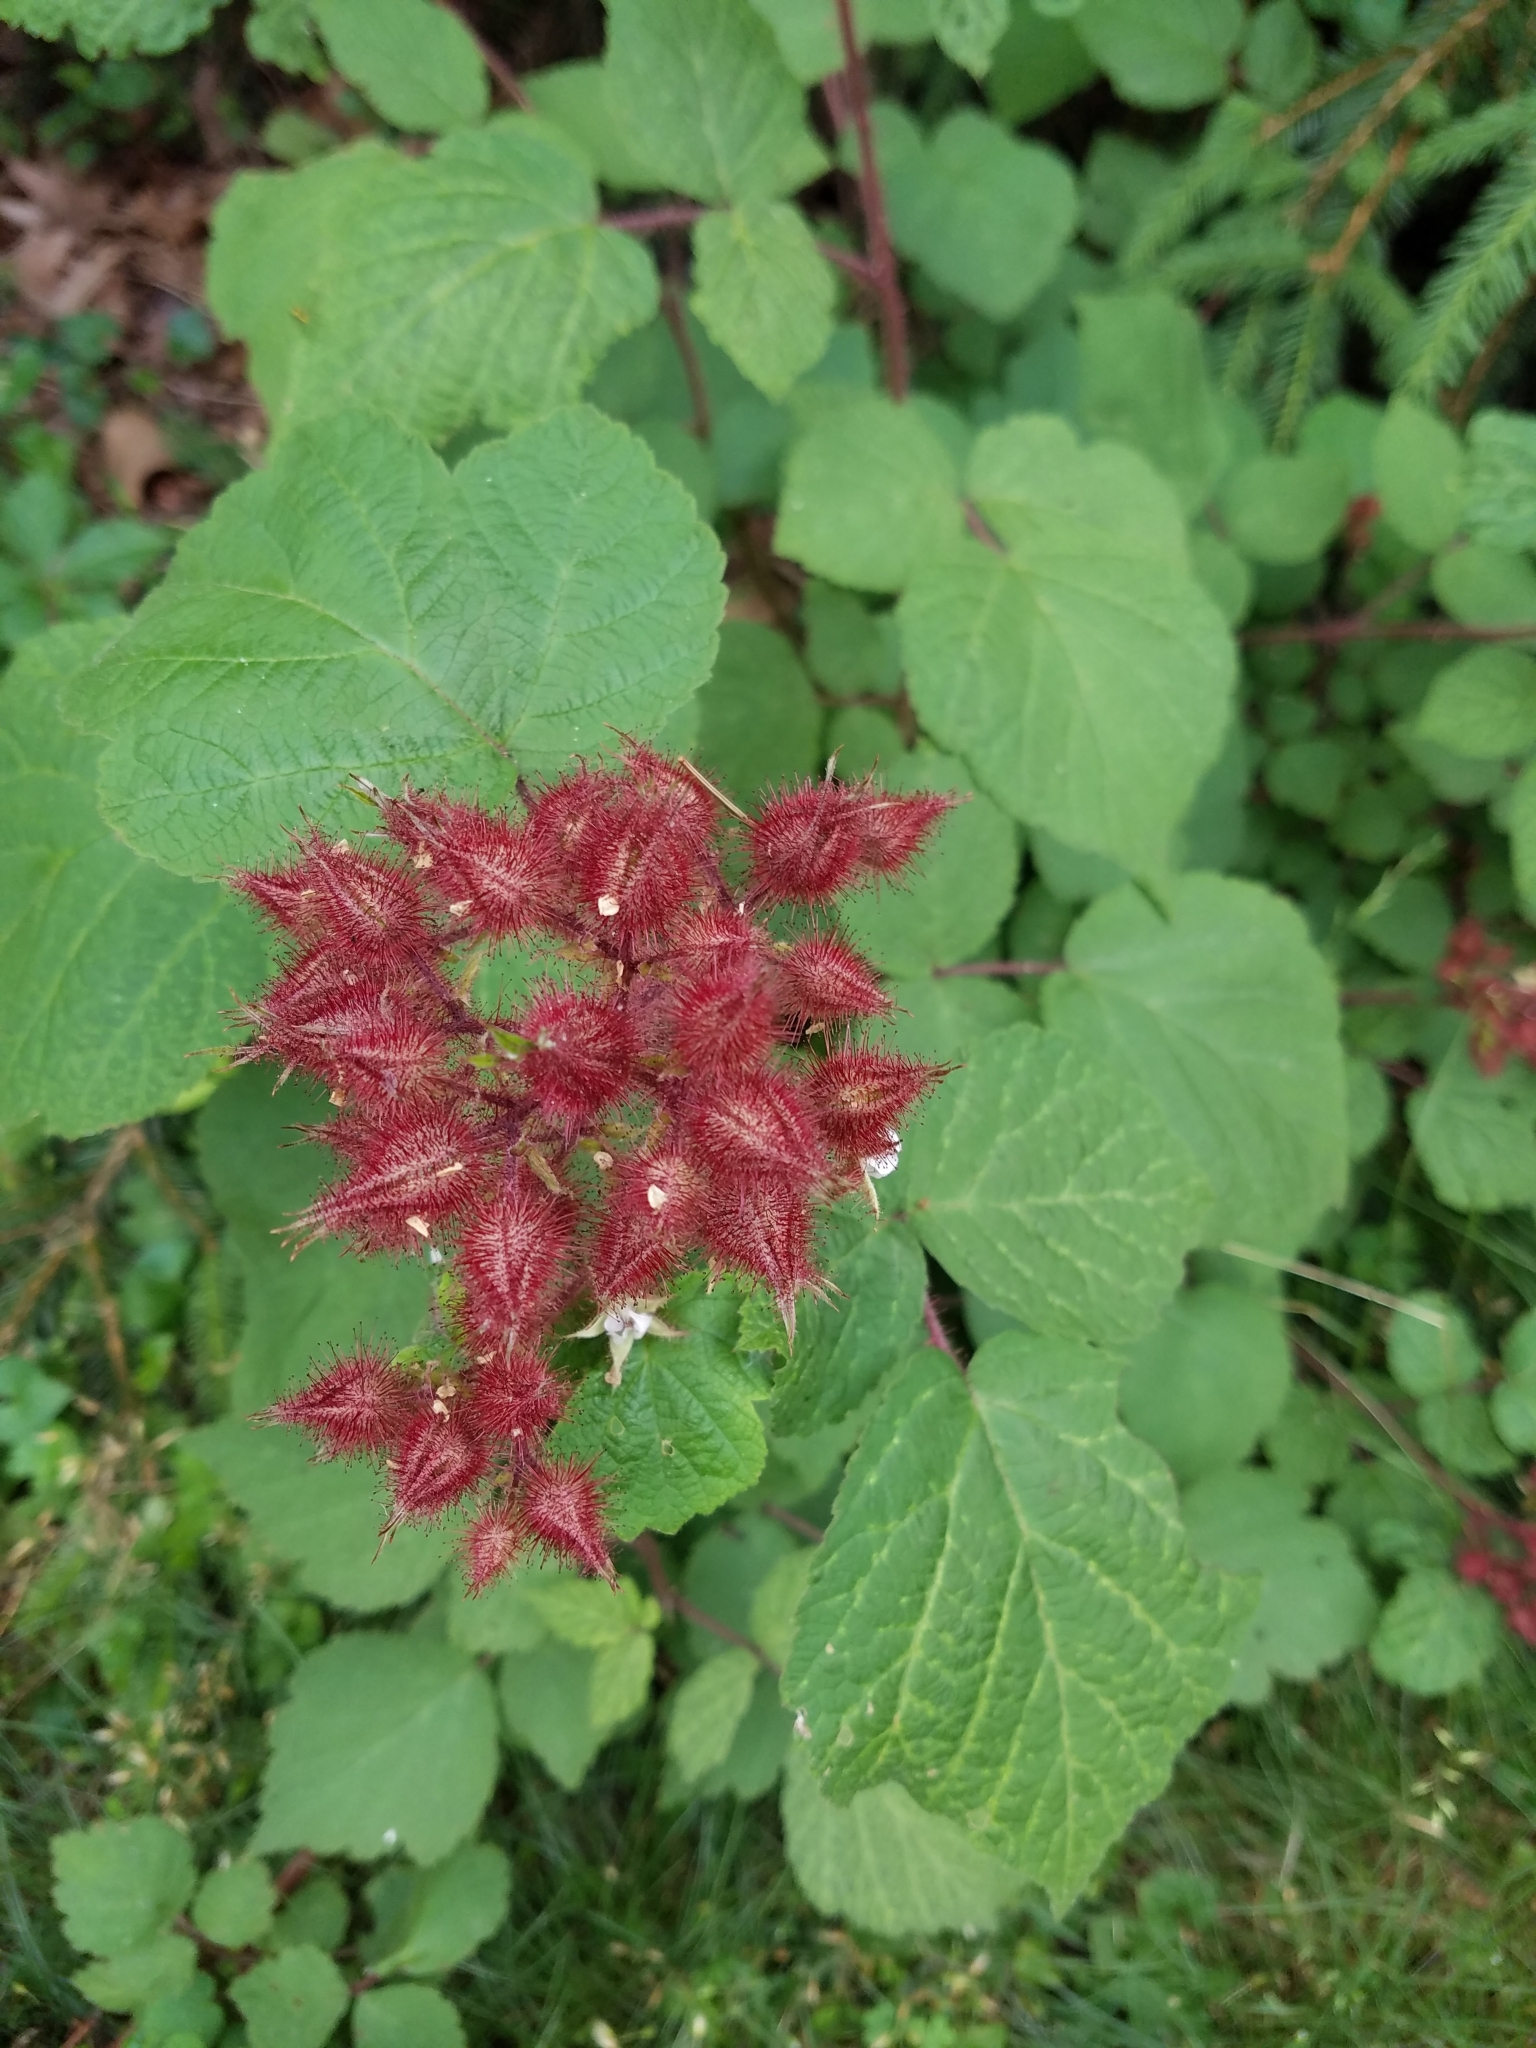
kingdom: Plantae
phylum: Tracheophyta
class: Magnoliopsida
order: Rosales
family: Rosaceae
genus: Rubus
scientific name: Rubus phoenicolasius
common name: Japanese wineberry
